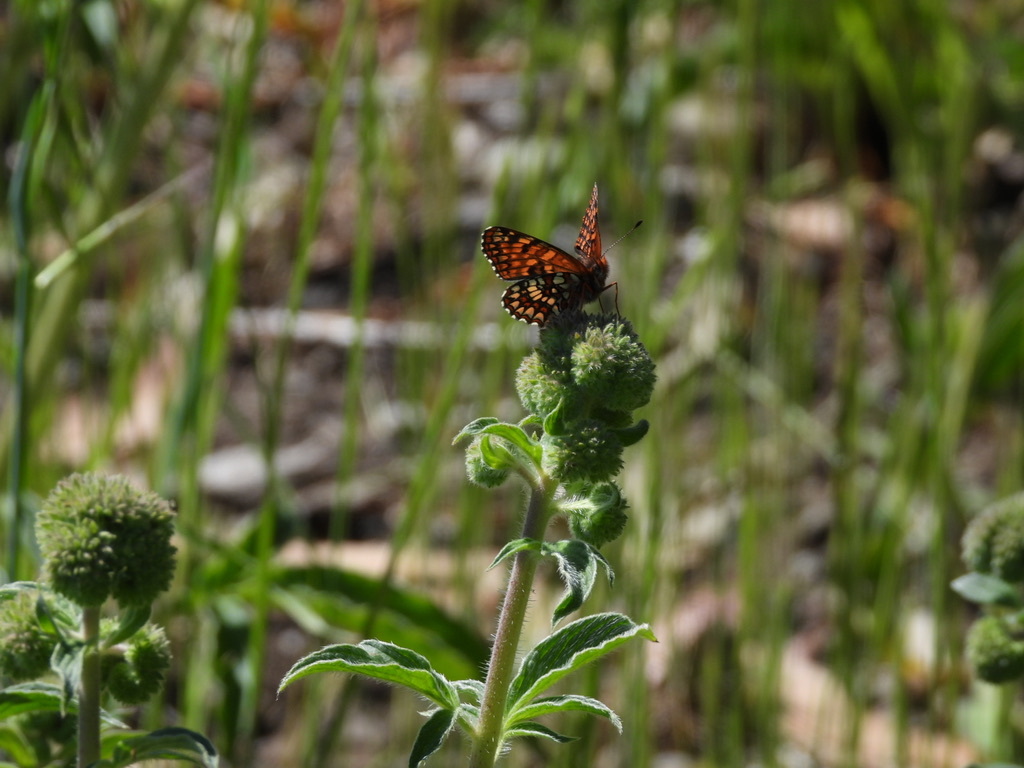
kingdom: Animalia
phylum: Arthropoda
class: Insecta
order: Lepidoptera
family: Nymphalidae
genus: Chlosyne
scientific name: Chlosyne palla
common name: Northern checkerspot
